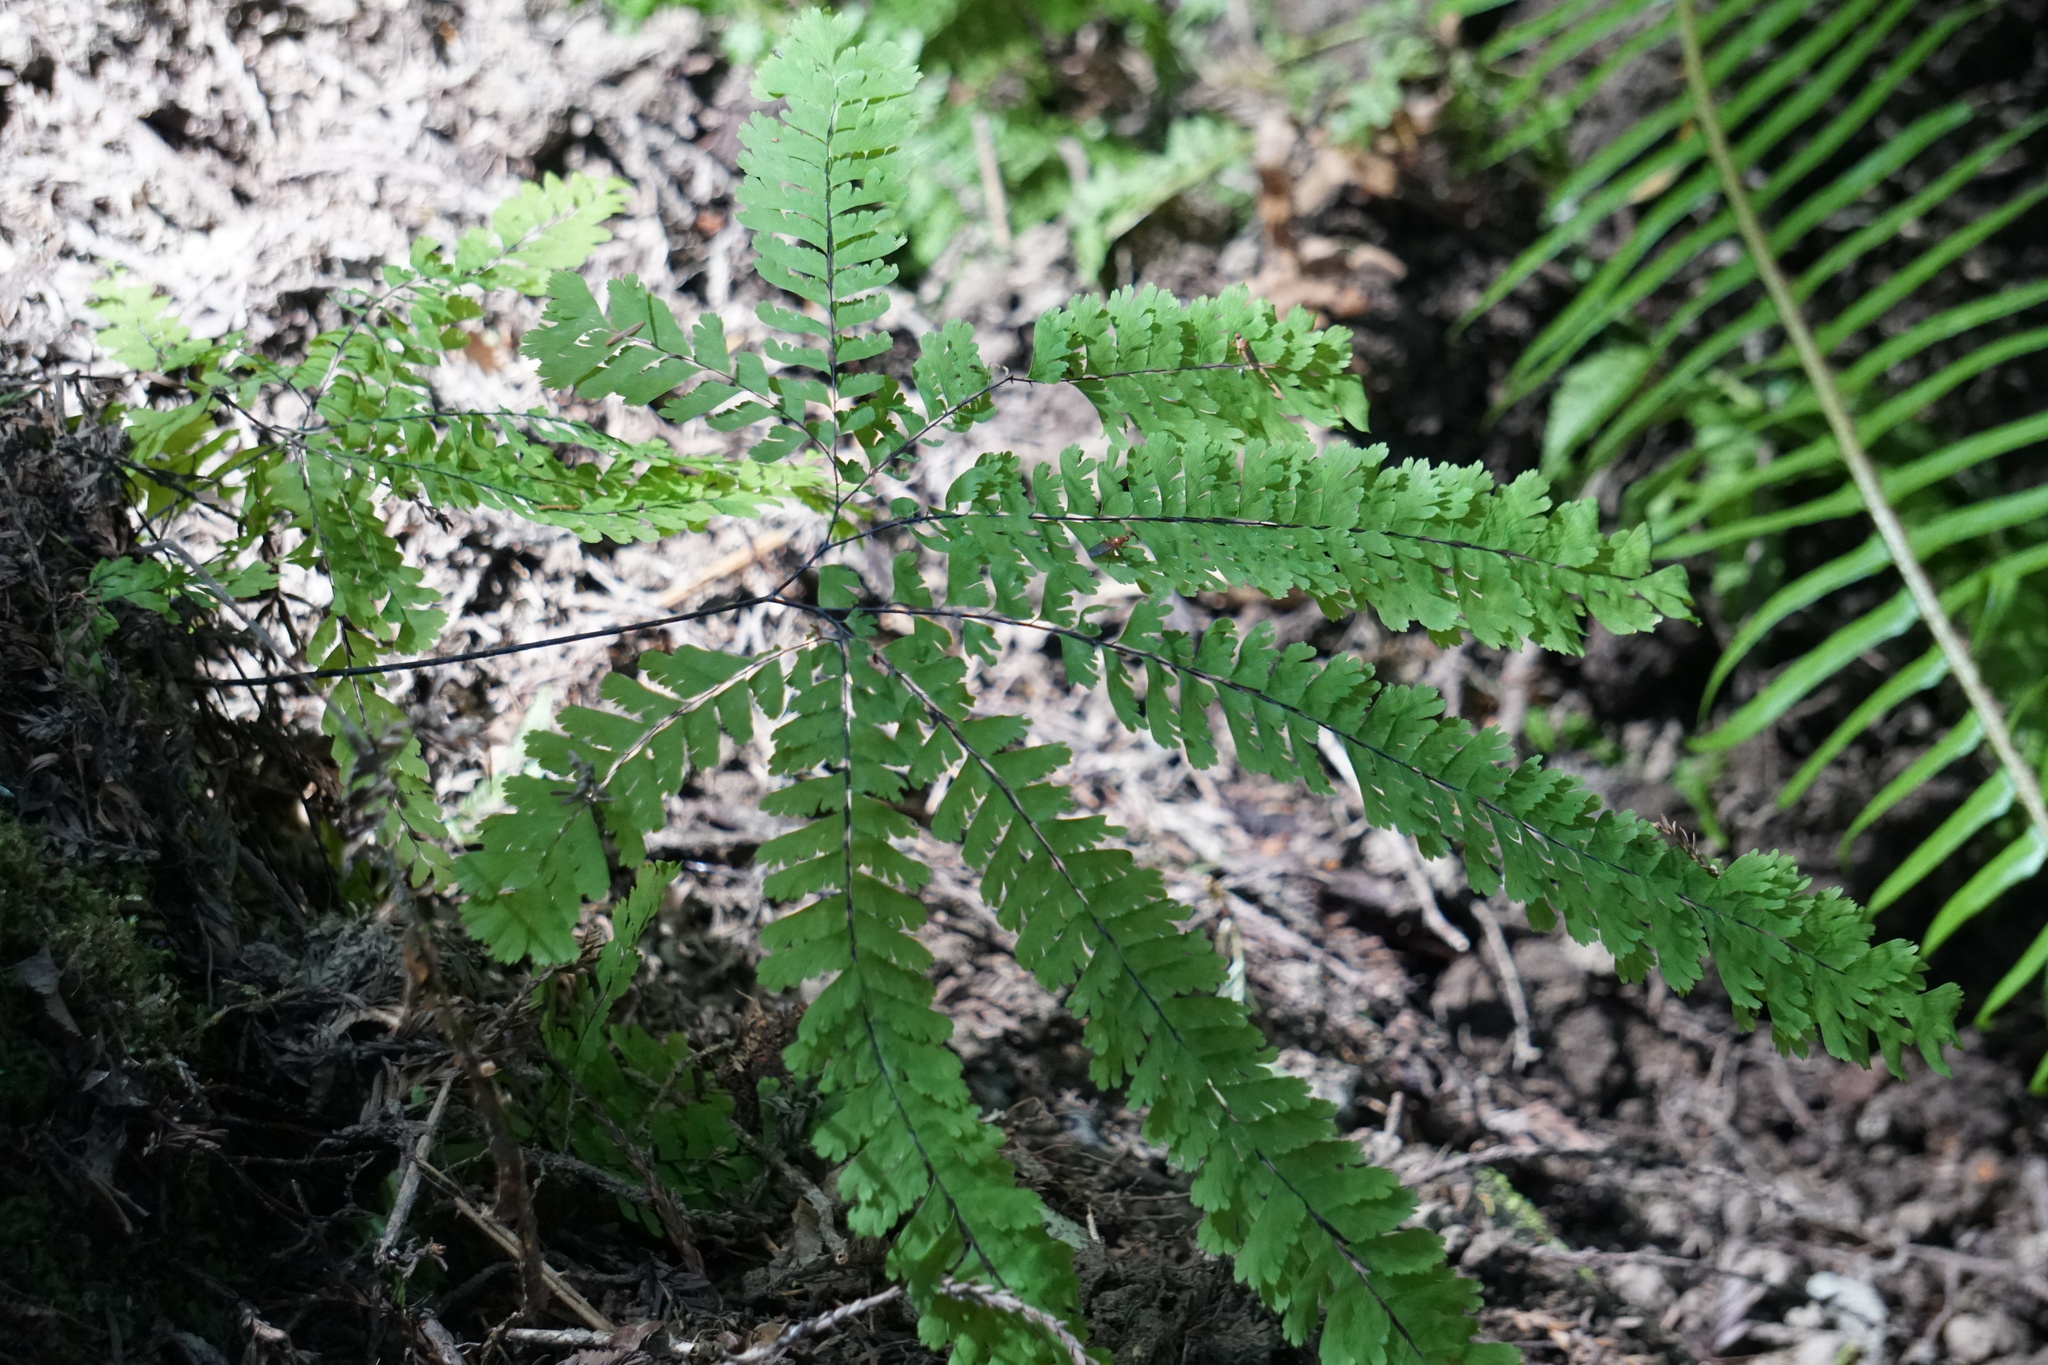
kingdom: Plantae
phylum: Tracheophyta
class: Polypodiopsida
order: Polypodiales
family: Pteridaceae
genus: Adiantum
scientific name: Adiantum aleuticum
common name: Aleutian maidenhair fern
